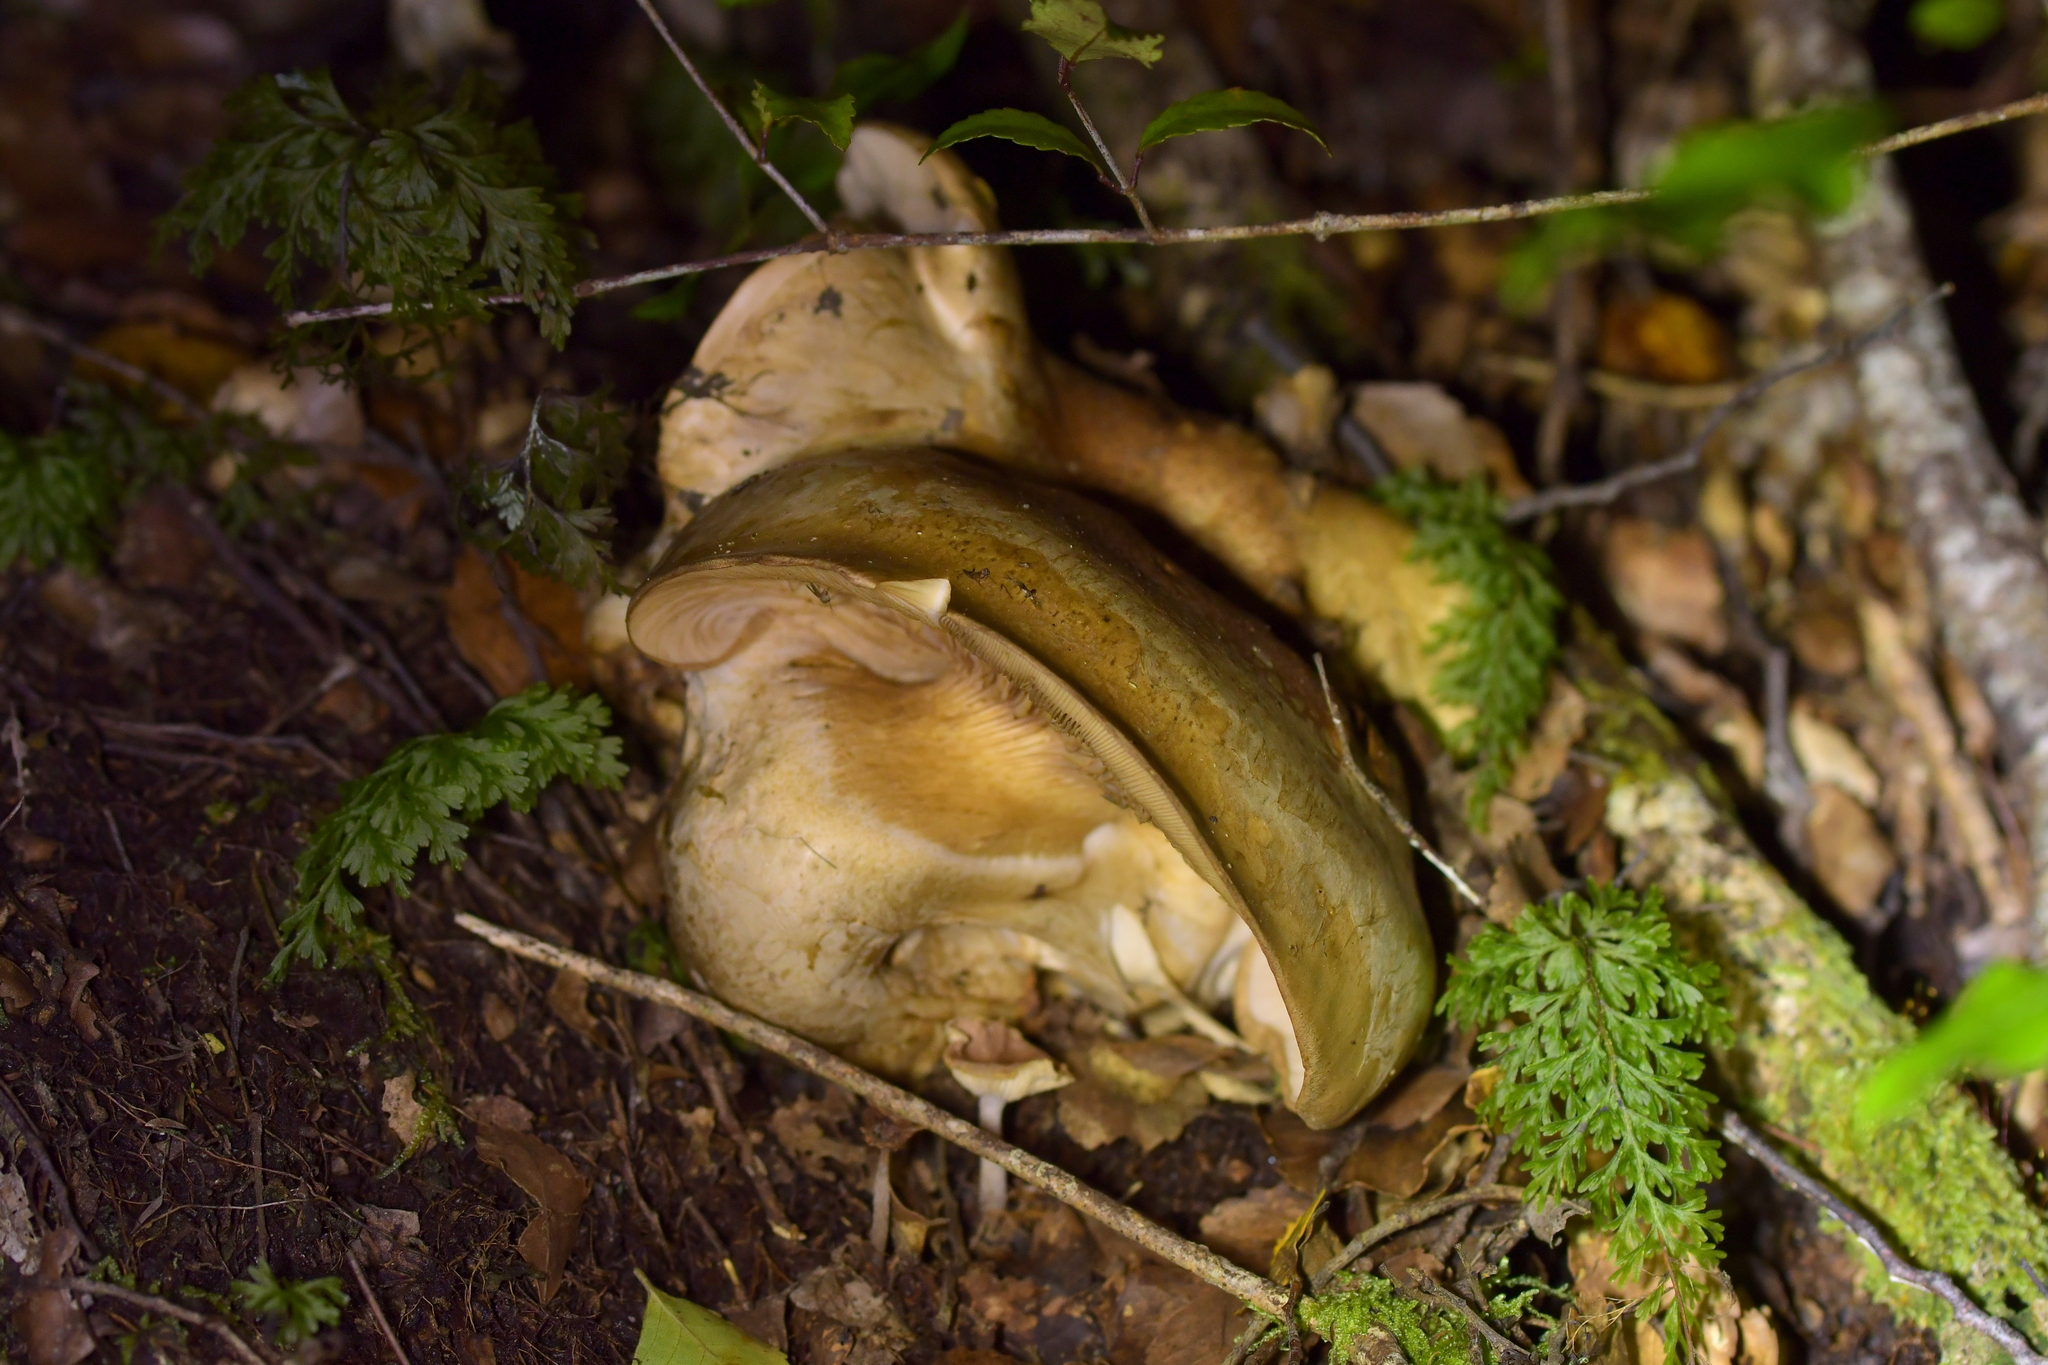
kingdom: Fungi
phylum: Basidiomycota
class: Agaricomycetes
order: Agaricales
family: Hymenogastraceae
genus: Hebeloma
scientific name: Hebeloma victoriense
